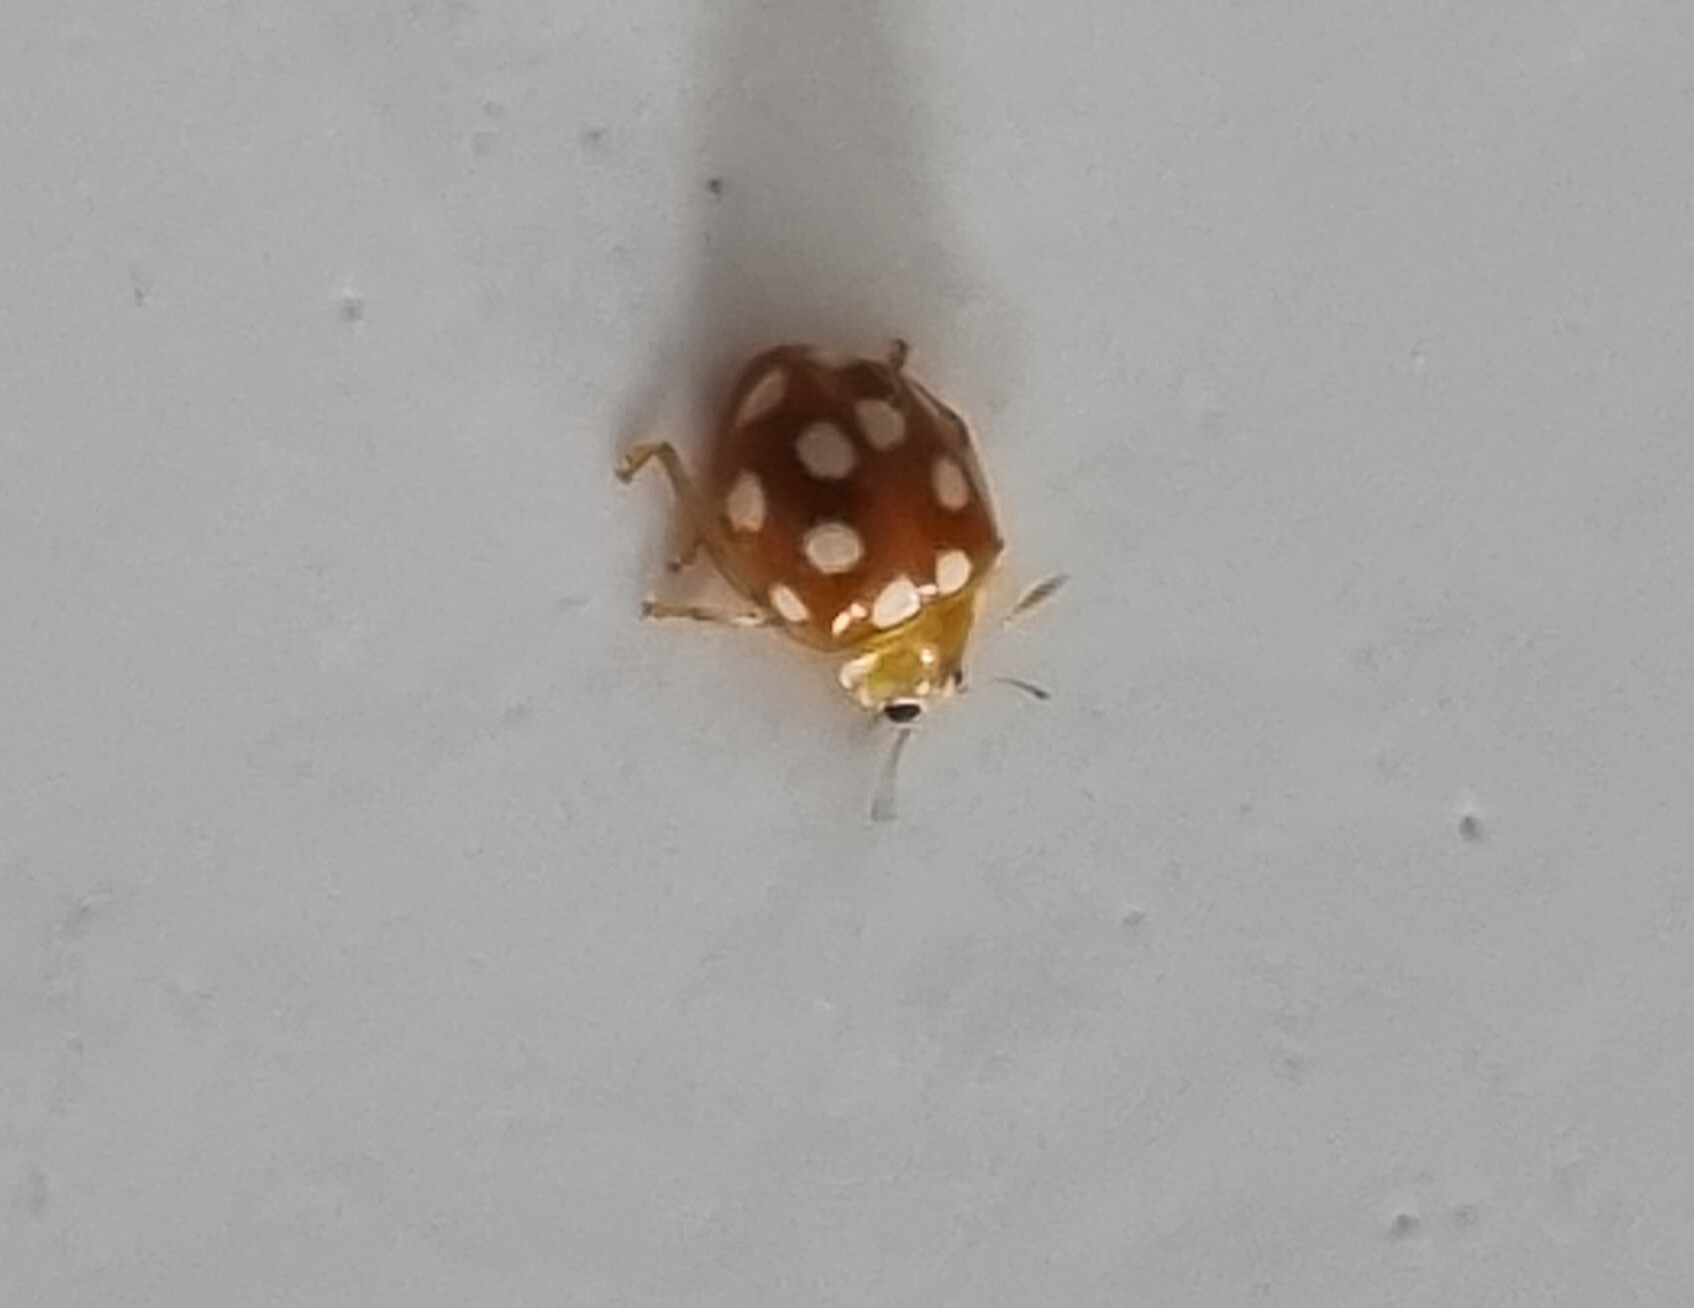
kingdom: Animalia
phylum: Arthropoda
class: Insecta
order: Coleoptera
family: Coccinellidae
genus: Vibidia
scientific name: Vibidia duodecimguttata
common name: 12-spot ladybird
